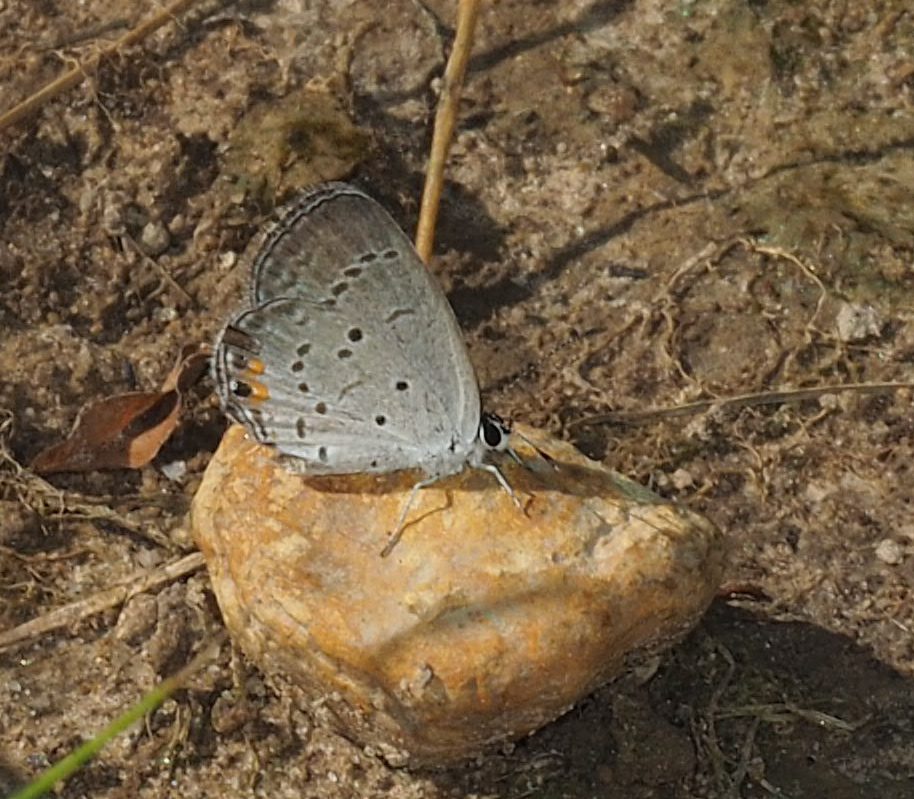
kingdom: Animalia
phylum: Arthropoda
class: Insecta
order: Lepidoptera
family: Lycaenidae
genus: Elkalyce
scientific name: Elkalyce comyntas
